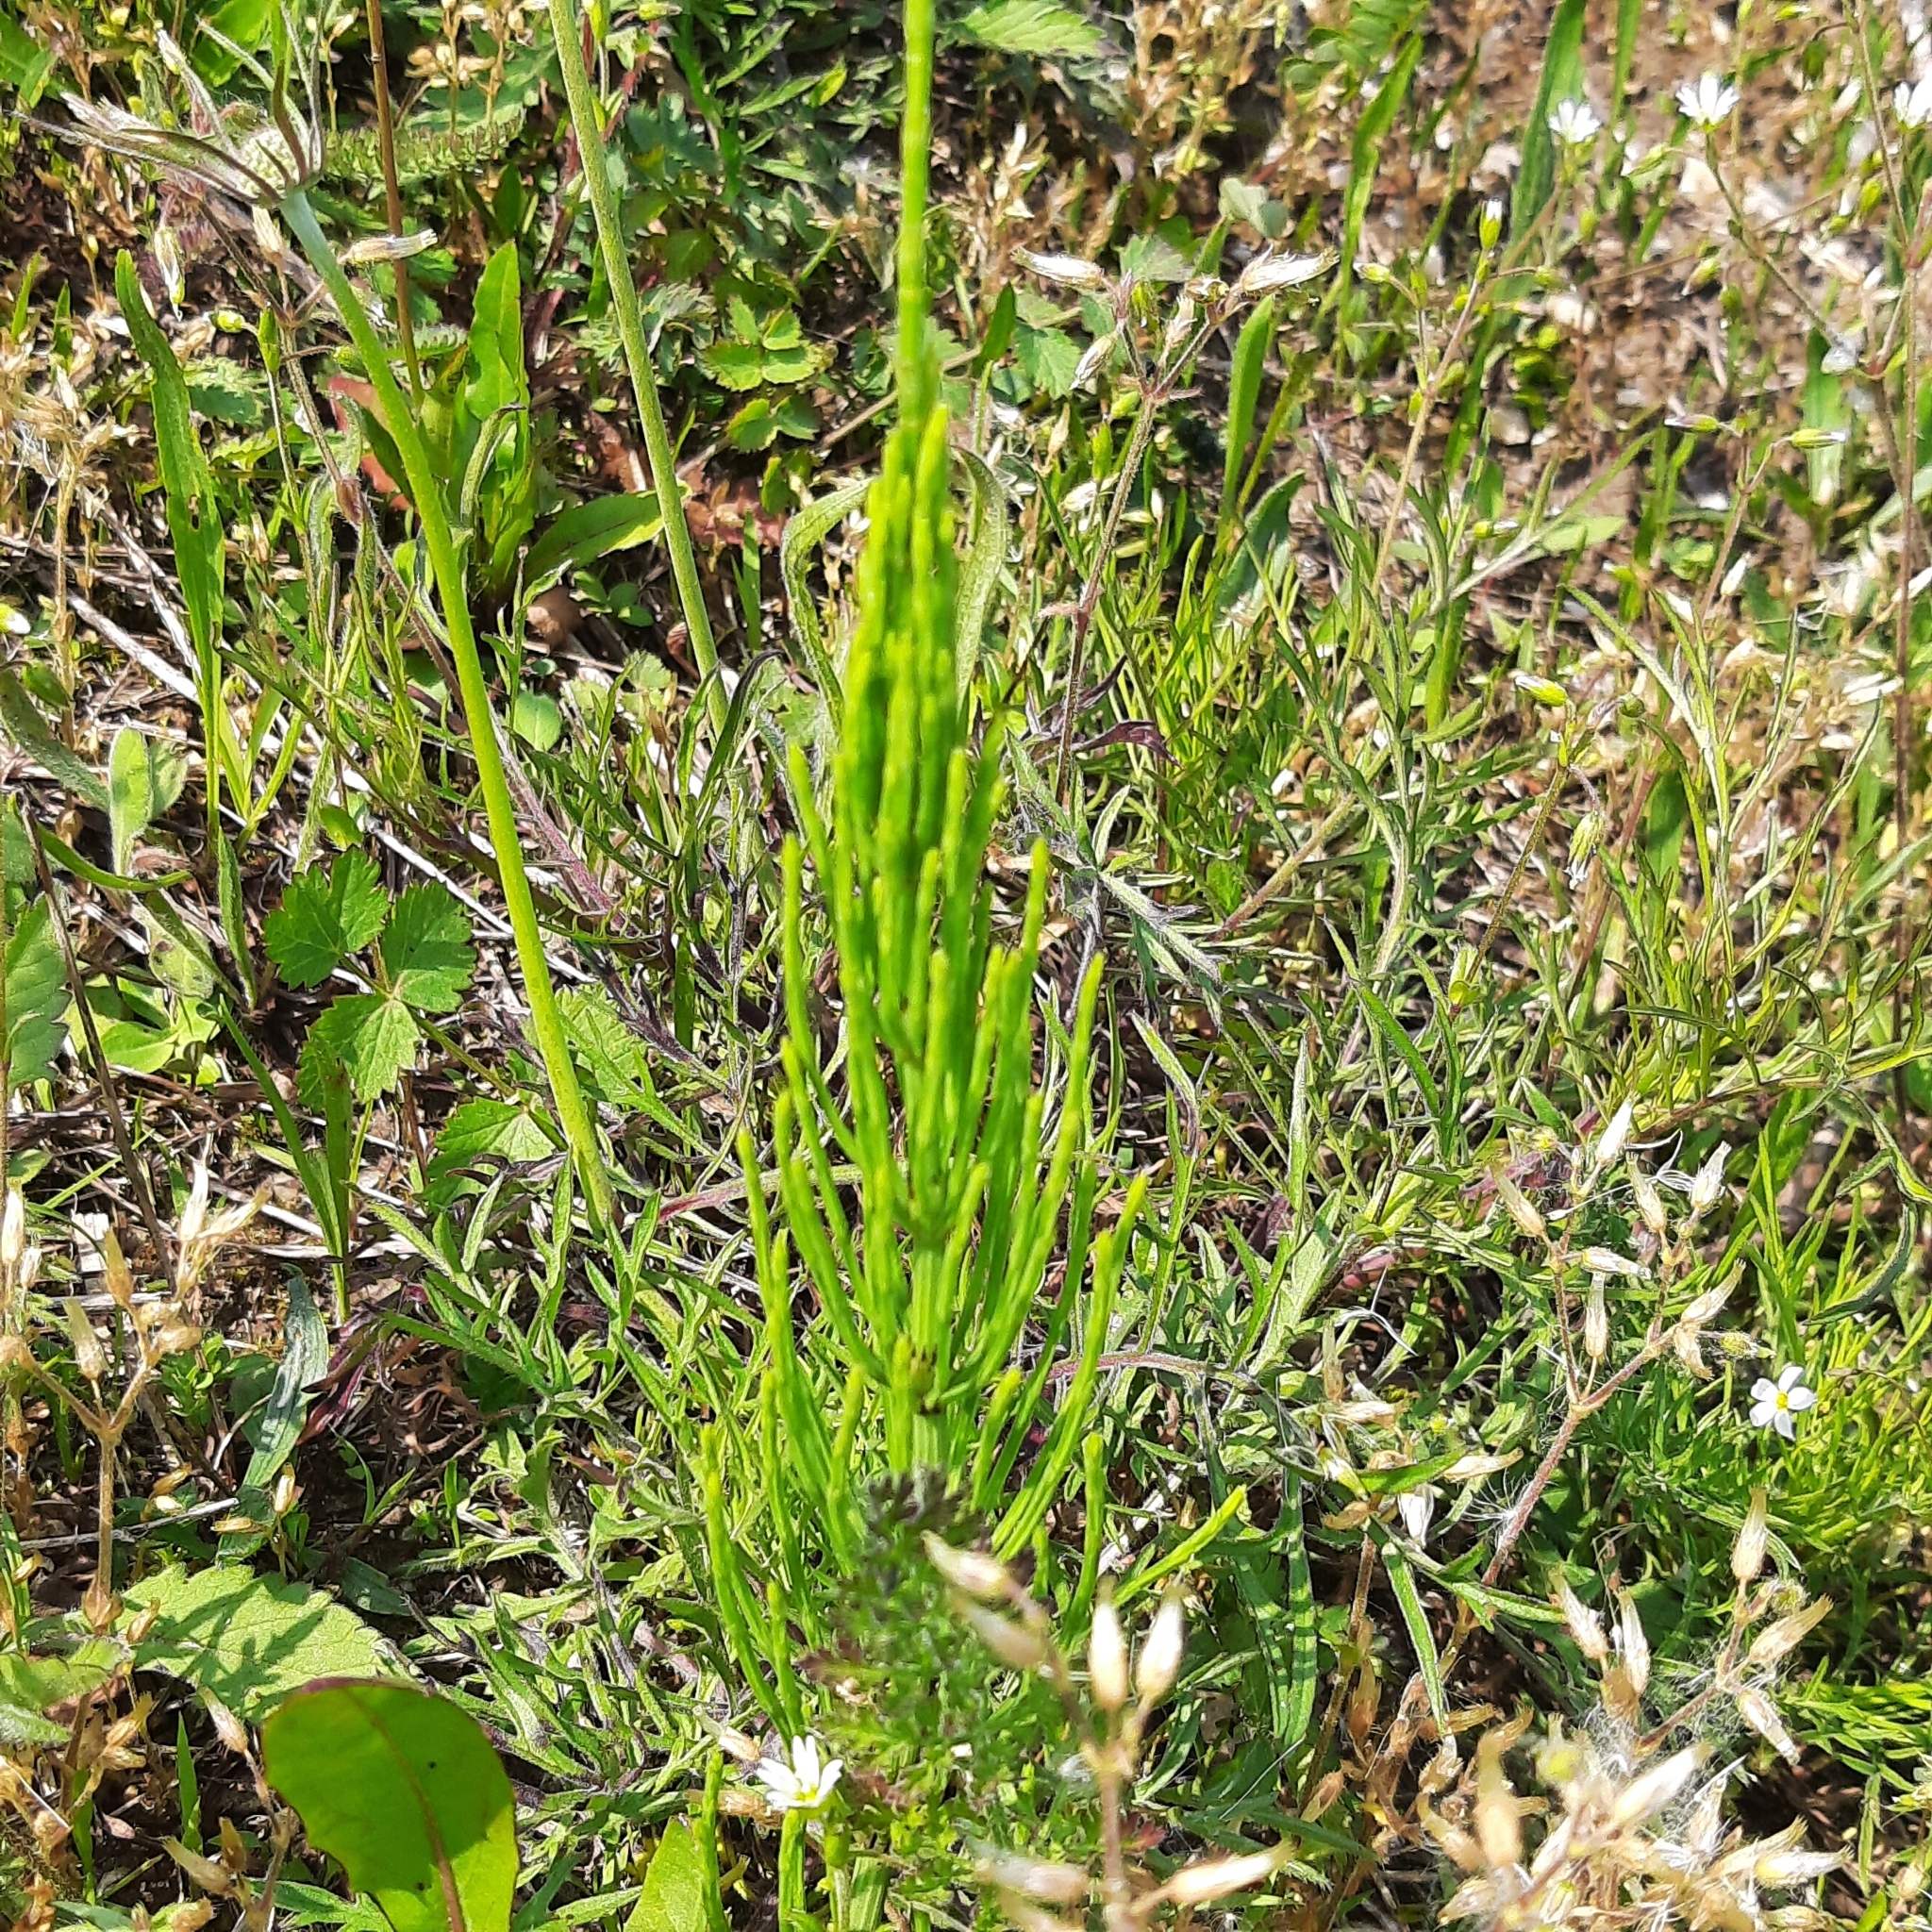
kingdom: Plantae
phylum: Tracheophyta
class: Polypodiopsida
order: Equisetales
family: Equisetaceae
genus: Equisetum
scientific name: Equisetum arvense
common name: Field horsetail
